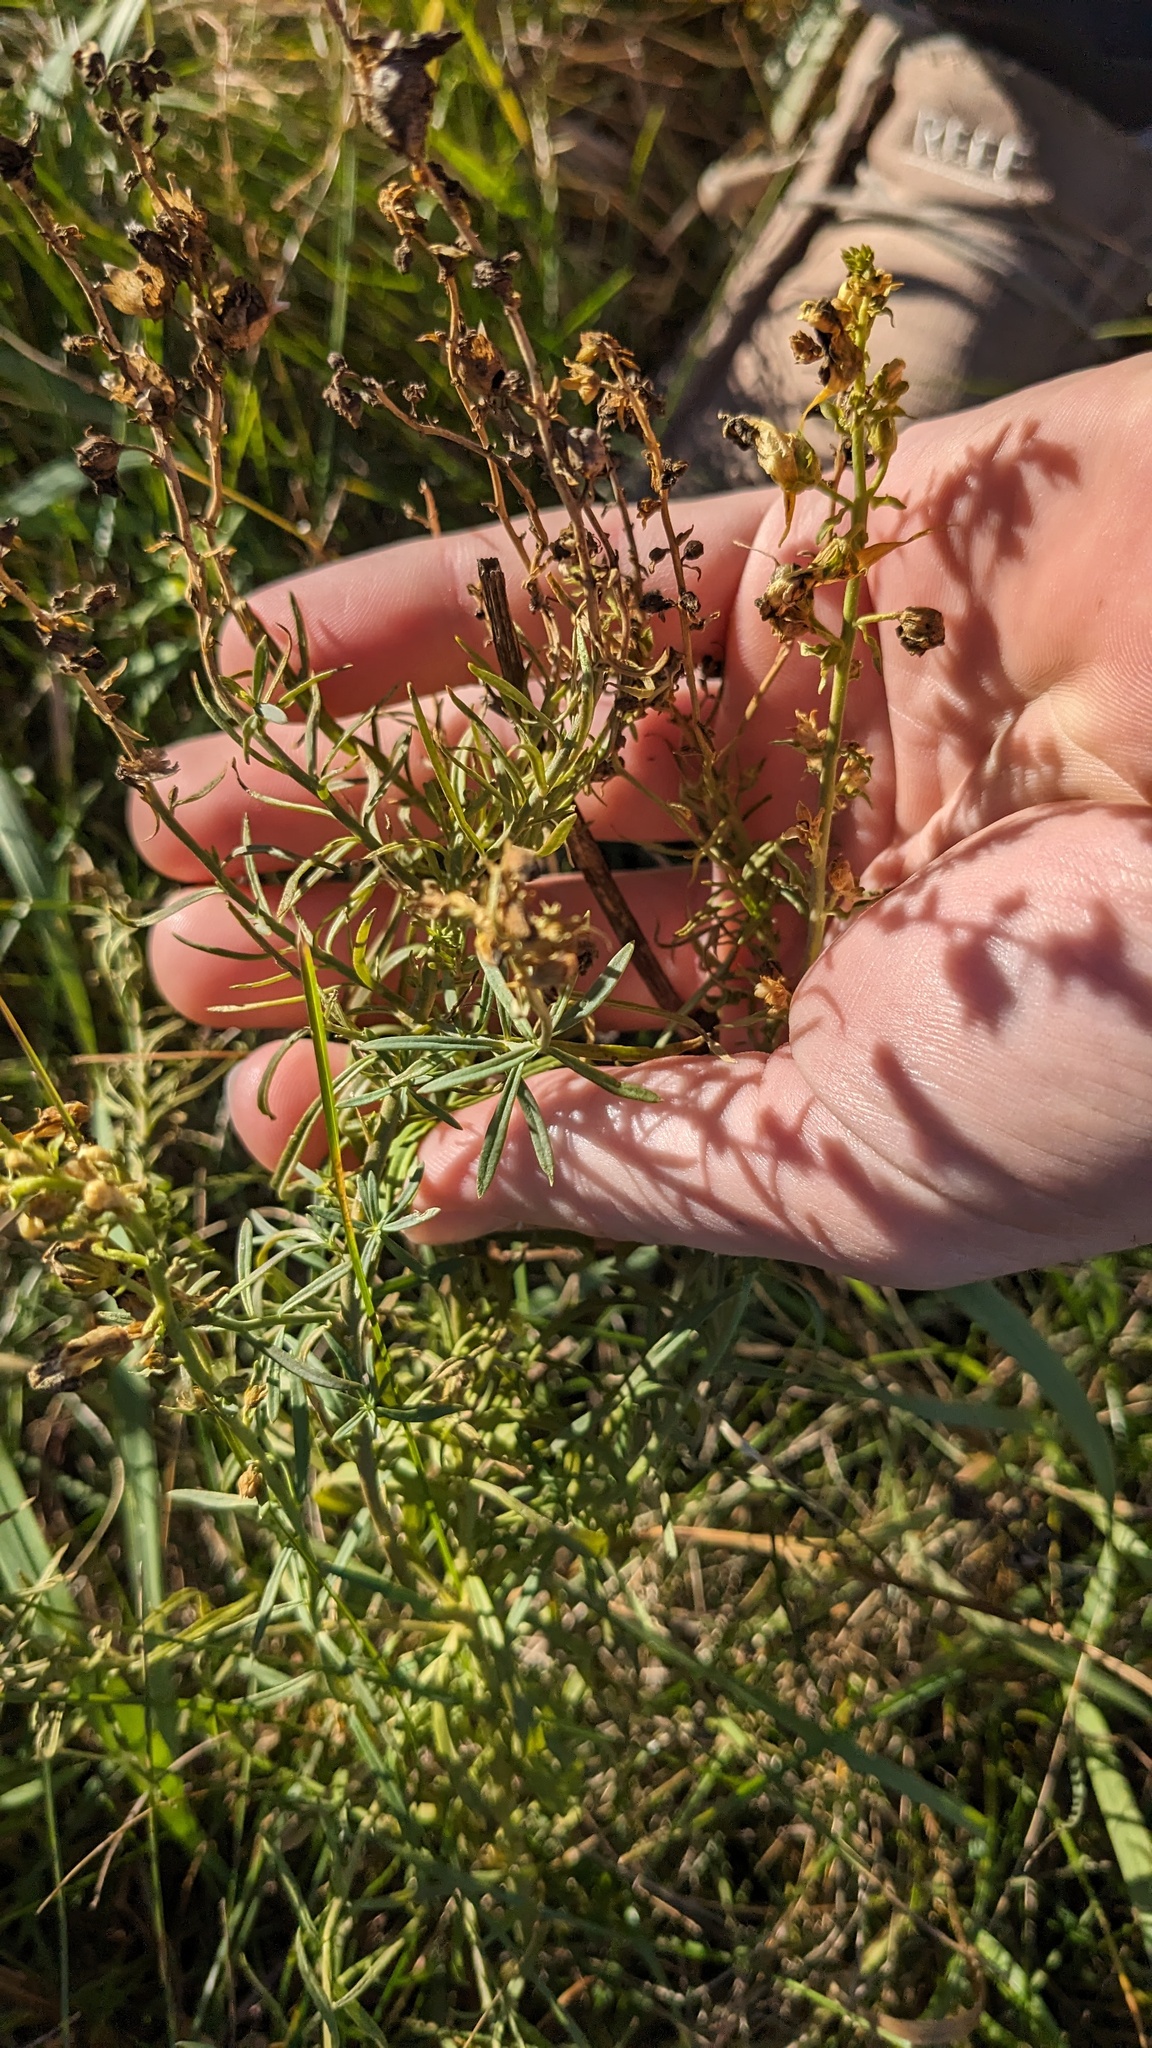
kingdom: Plantae
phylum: Tracheophyta
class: Magnoliopsida
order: Lamiales
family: Plantaginaceae
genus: Linaria
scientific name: Linaria vulgaris
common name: Butter and eggs
